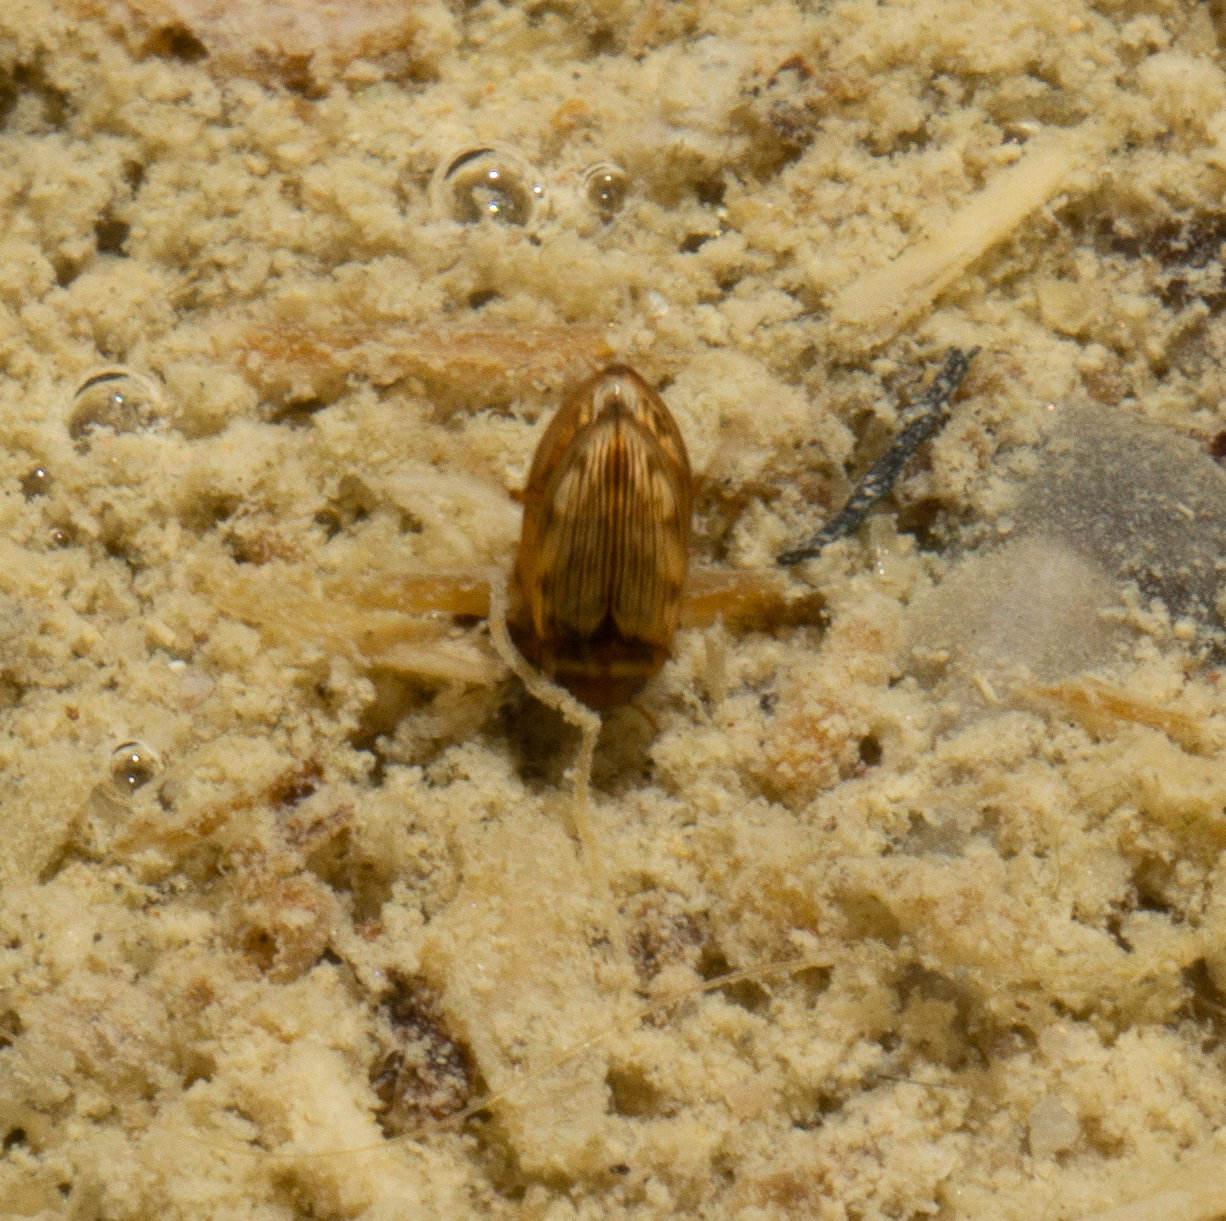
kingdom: Animalia
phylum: Arthropoda
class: Insecta
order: Coleoptera
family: Dytiscidae
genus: Mystonectes
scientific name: Mystonectes panaminti
